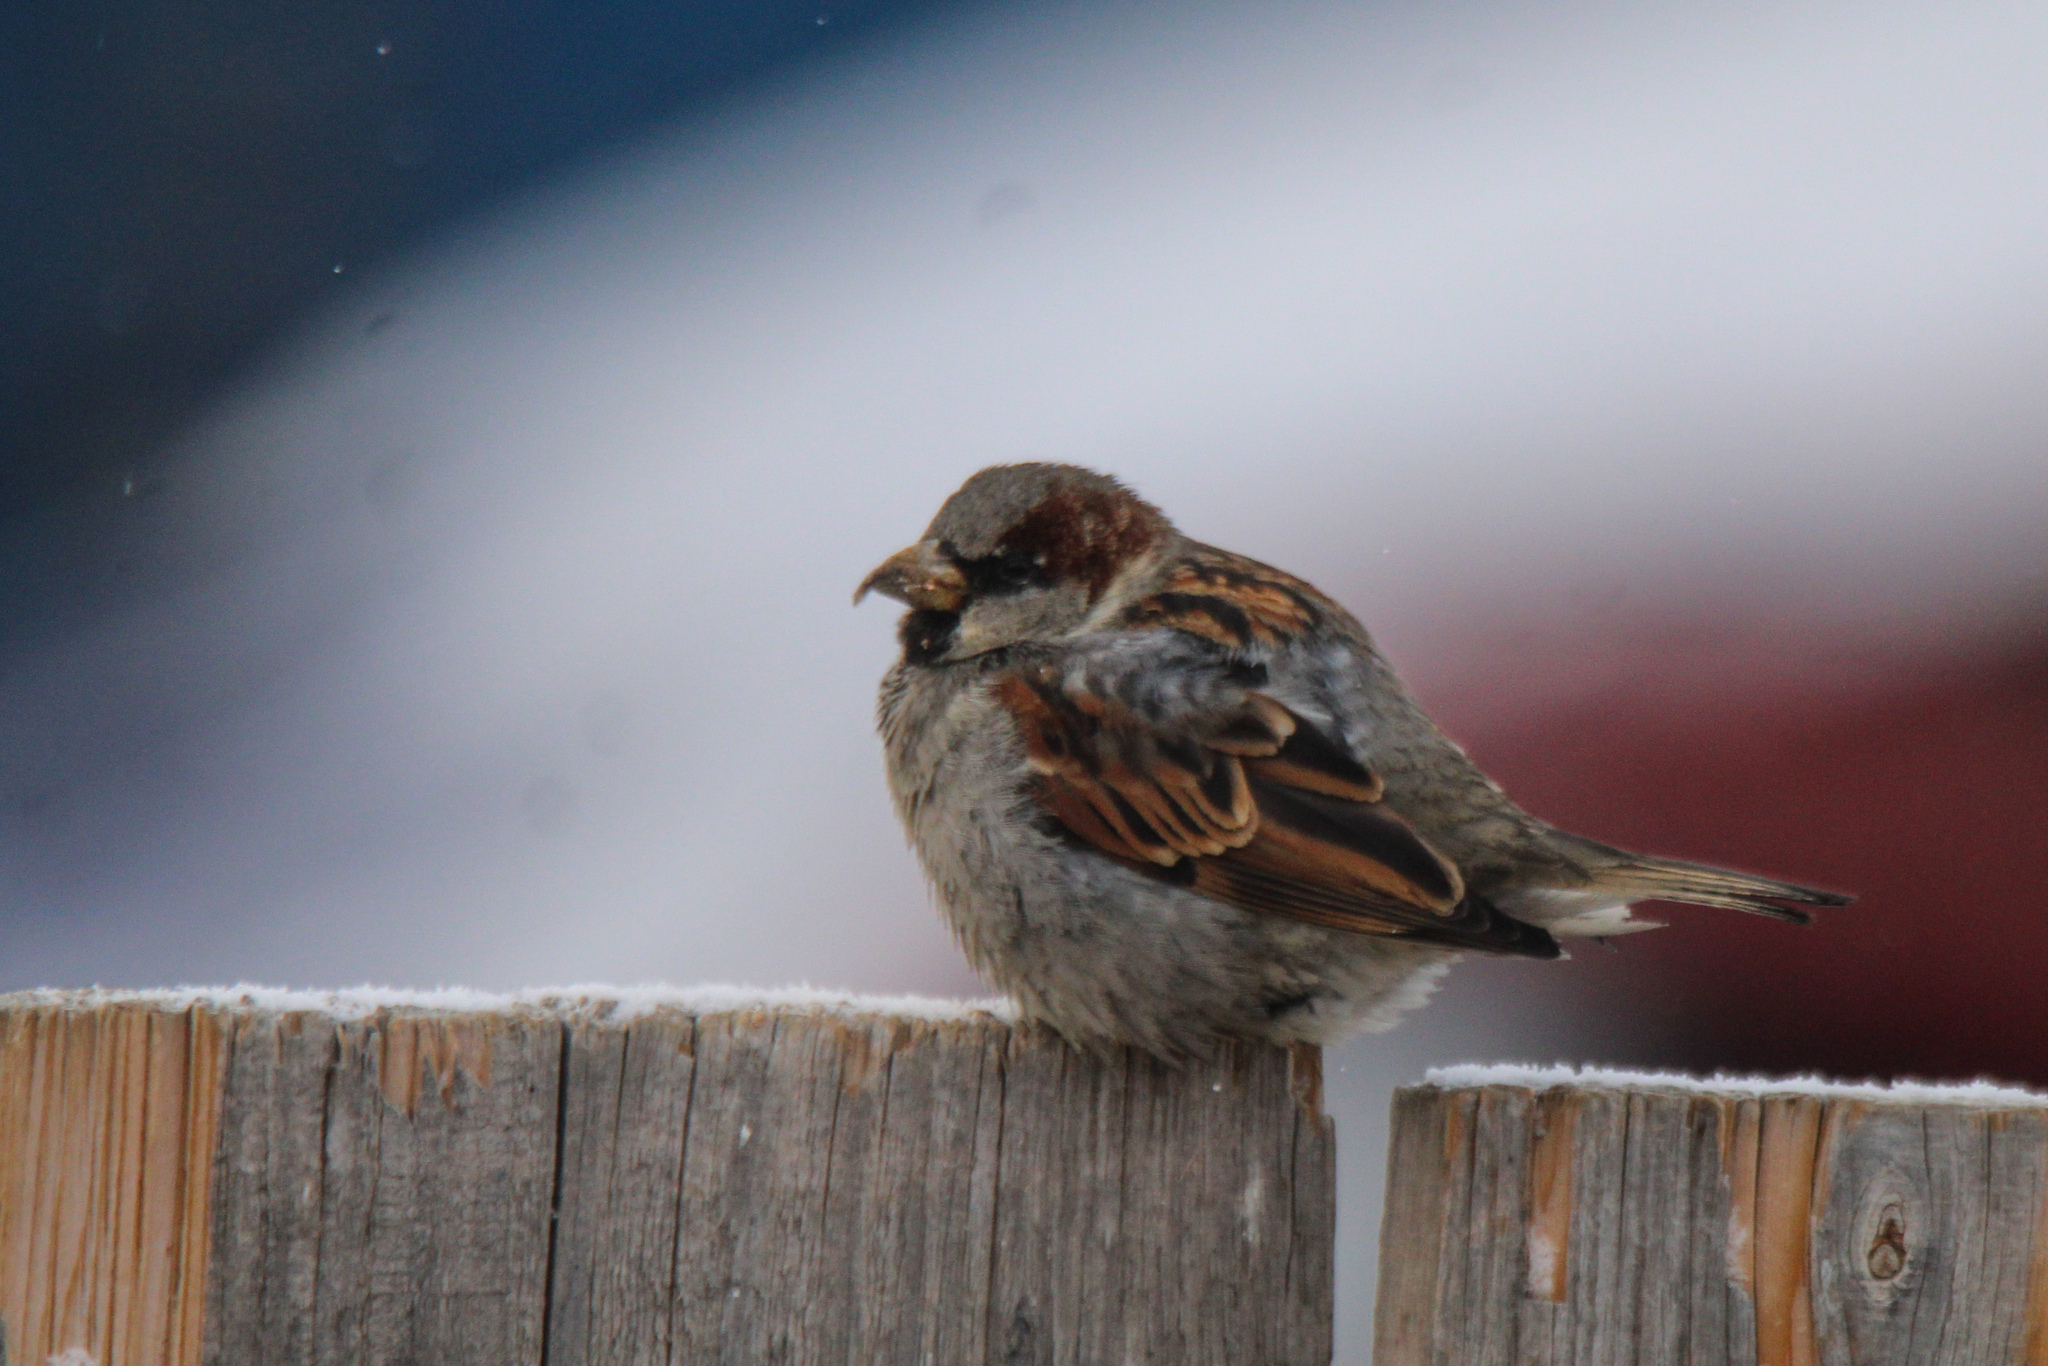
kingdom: Animalia
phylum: Chordata
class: Aves
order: Passeriformes
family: Passeridae
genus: Passer
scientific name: Passer domesticus
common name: House sparrow
